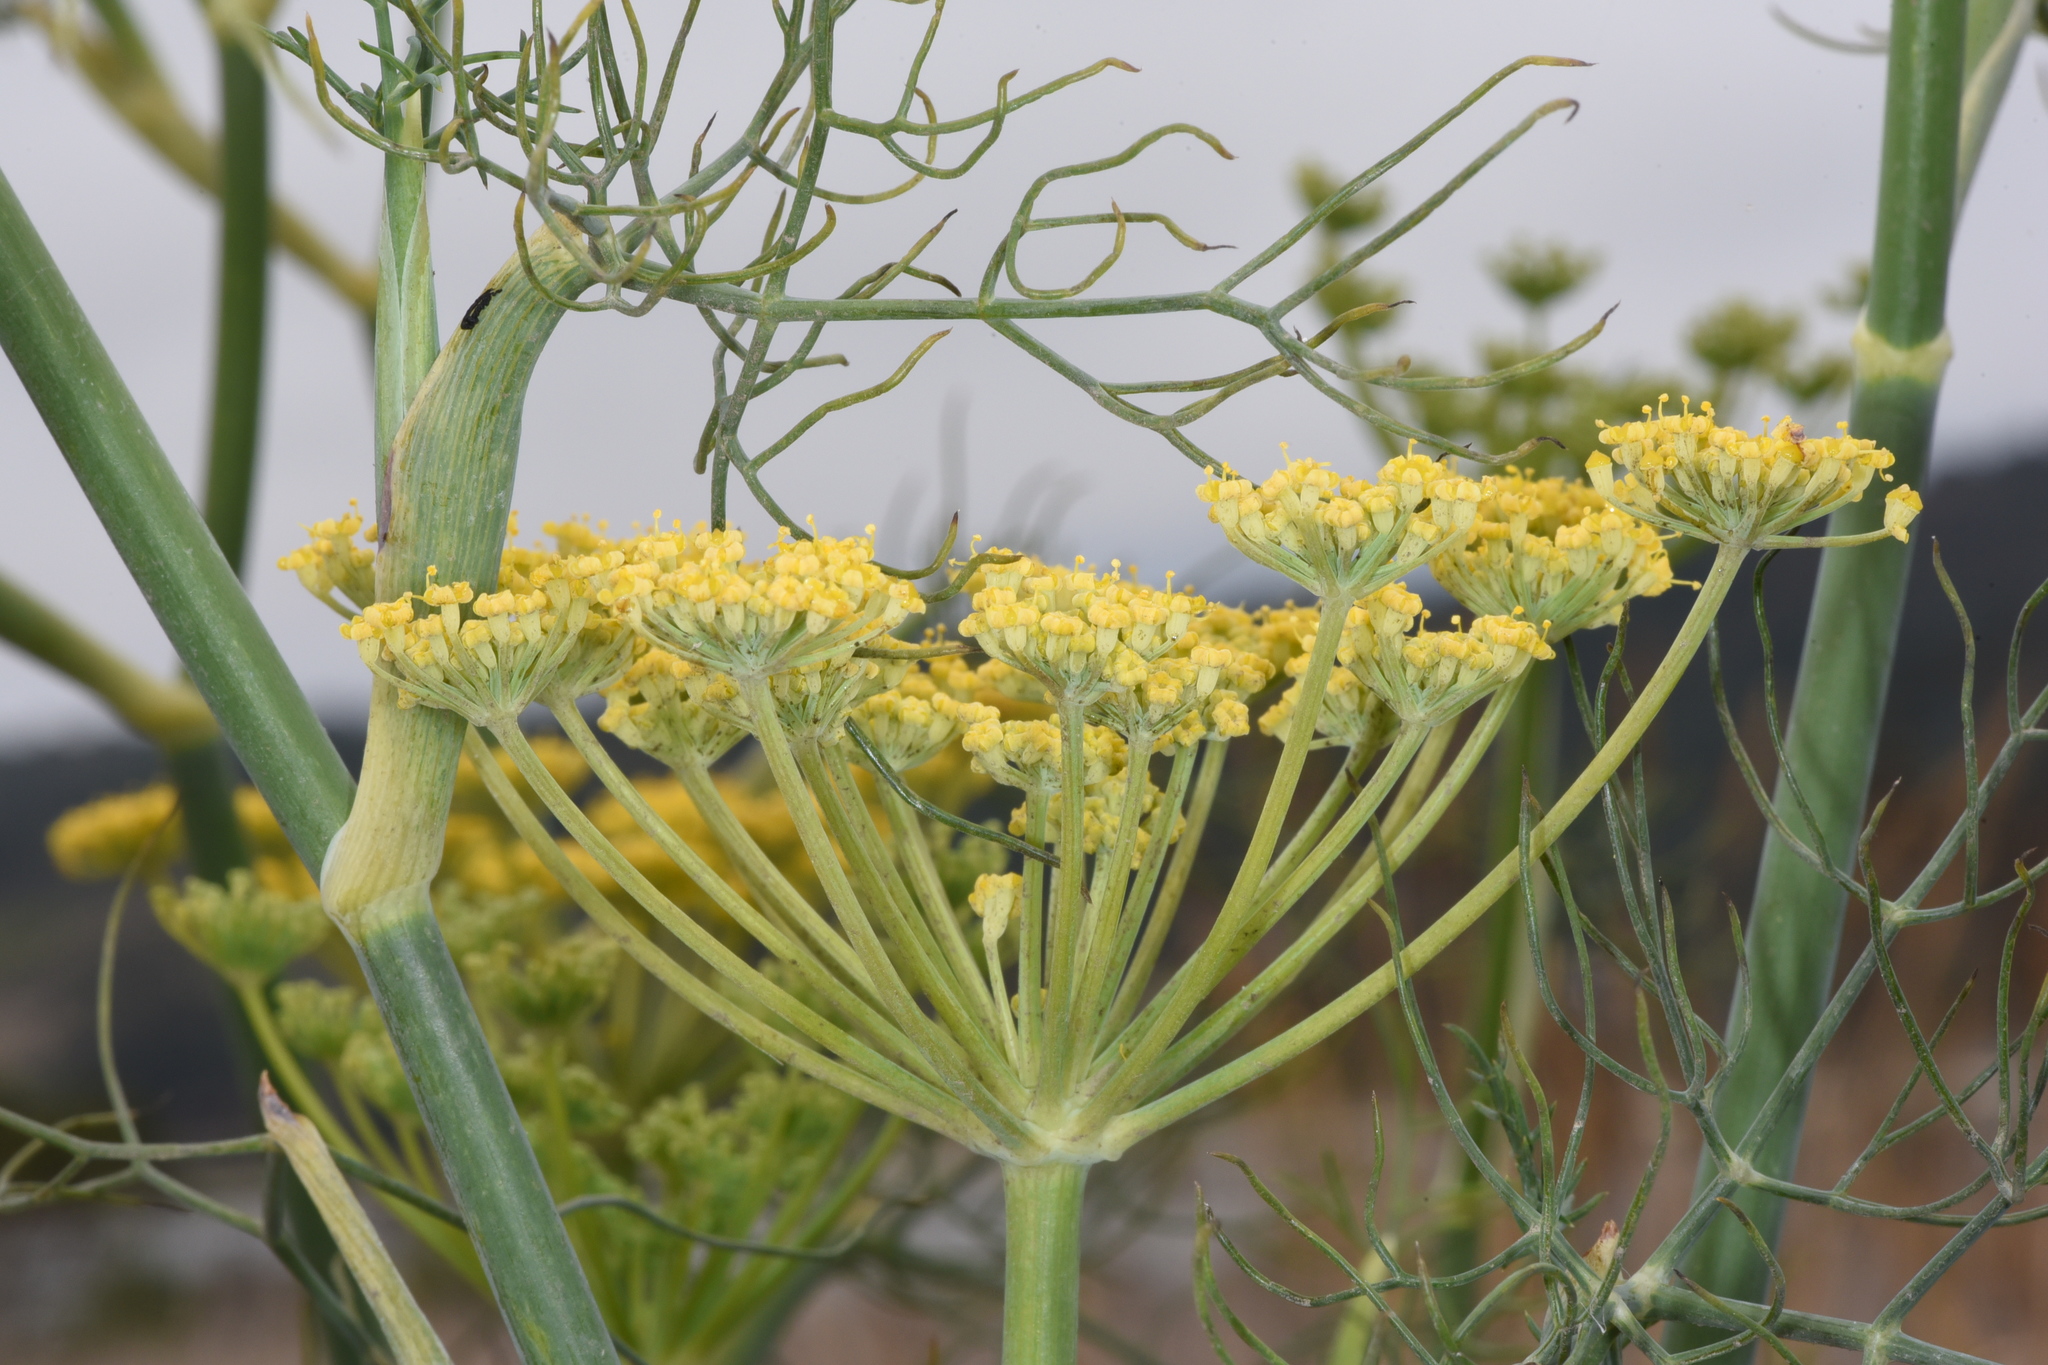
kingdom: Plantae
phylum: Tracheophyta
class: Magnoliopsida
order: Apiales
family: Apiaceae
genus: Foeniculum
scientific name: Foeniculum vulgare
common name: Fennel
